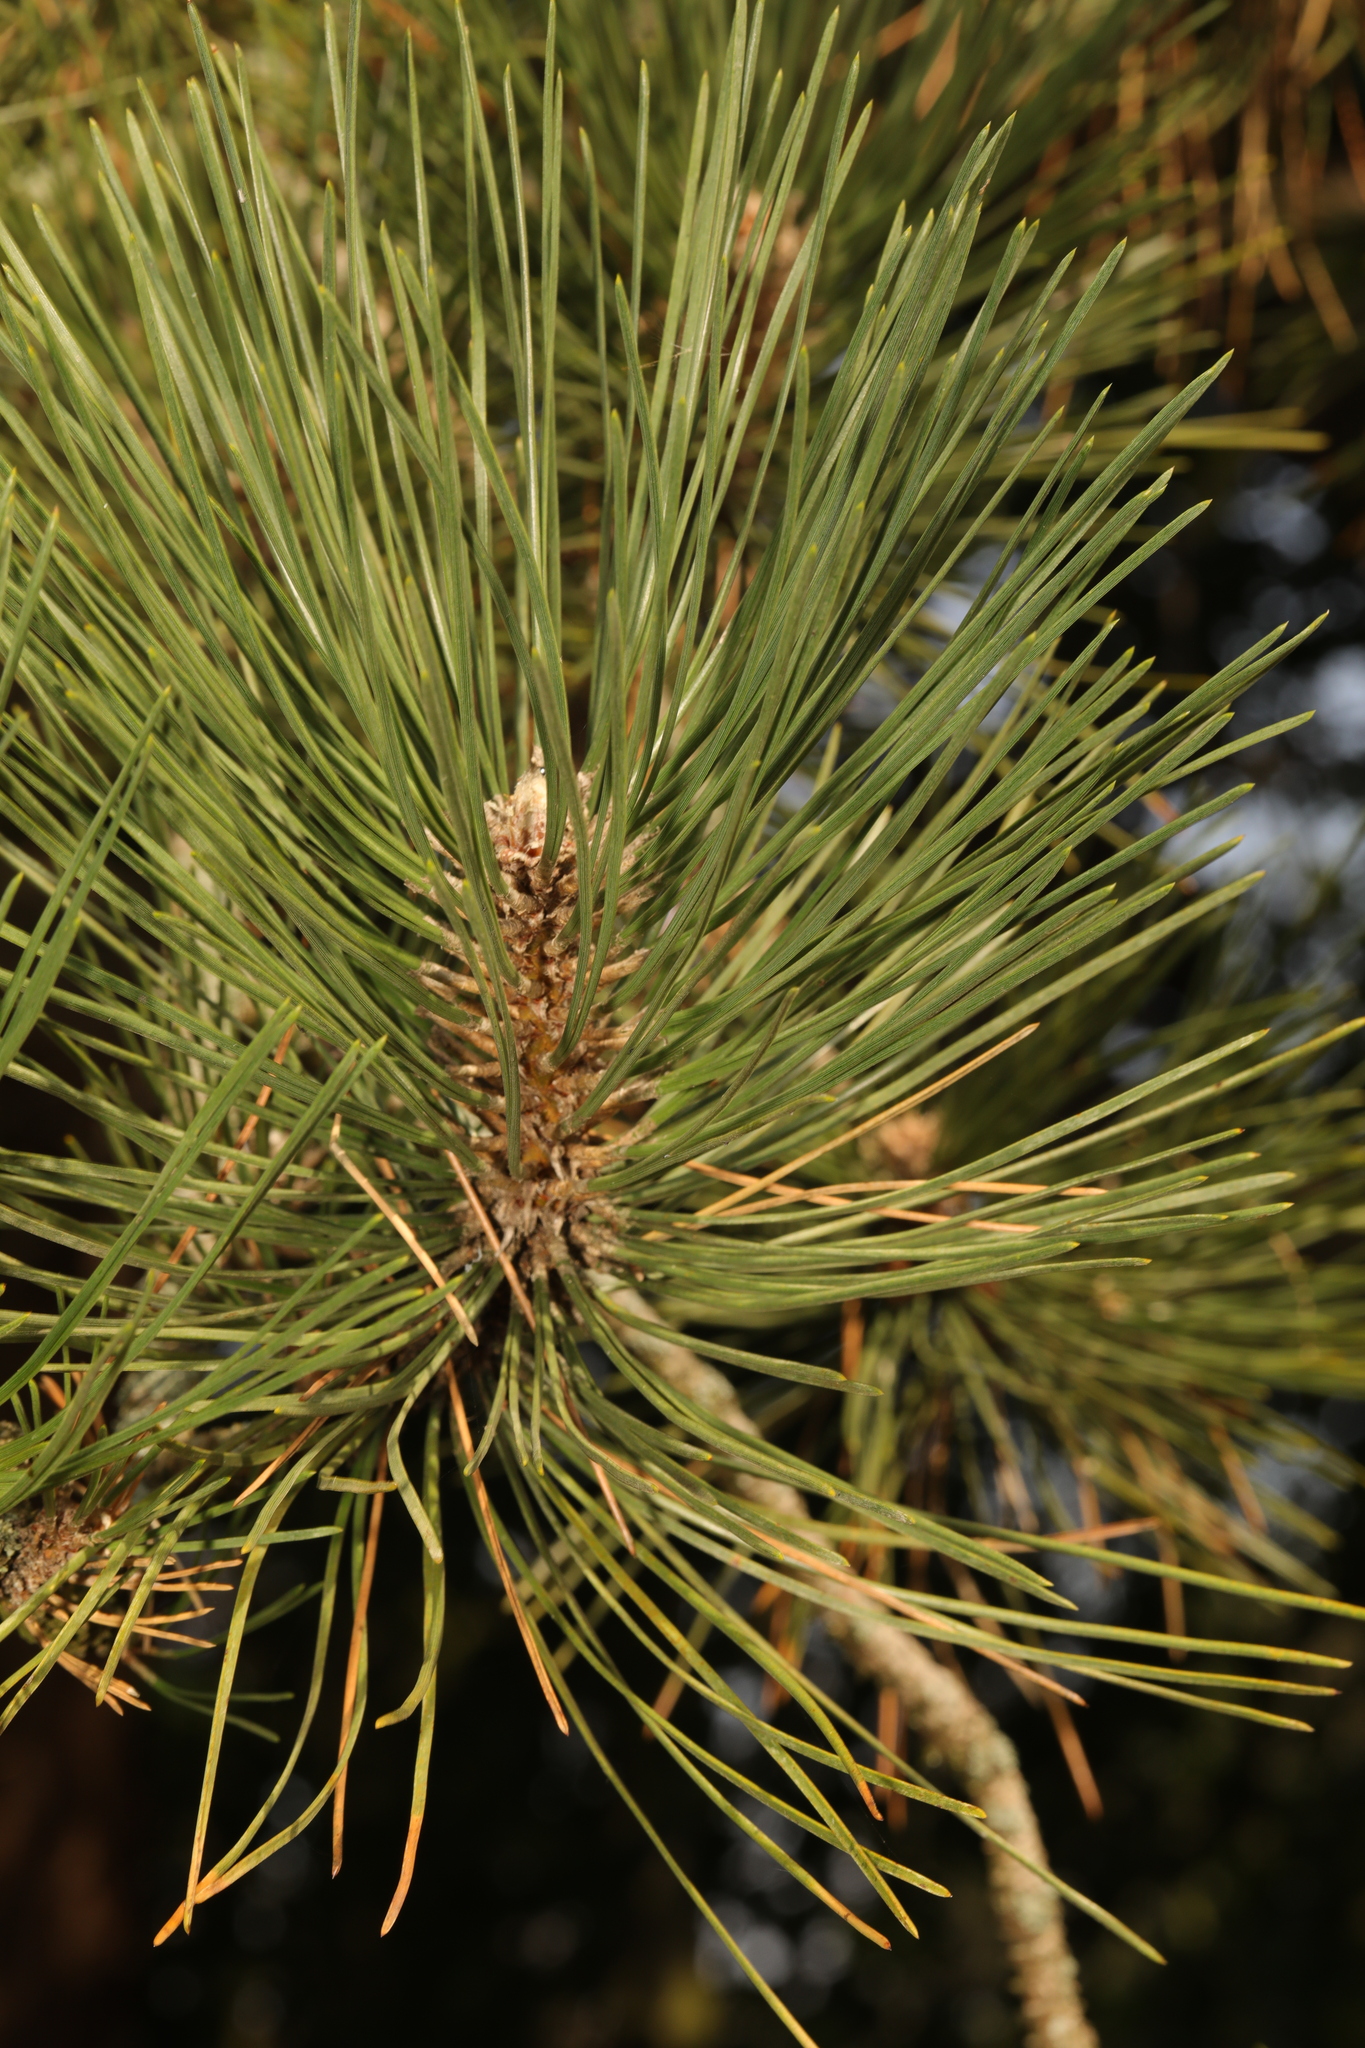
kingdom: Plantae
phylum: Tracheophyta
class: Pinopsida
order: Pinales
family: Pinaceae
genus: Pinus
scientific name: Pinus nigra
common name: Austrian pine
